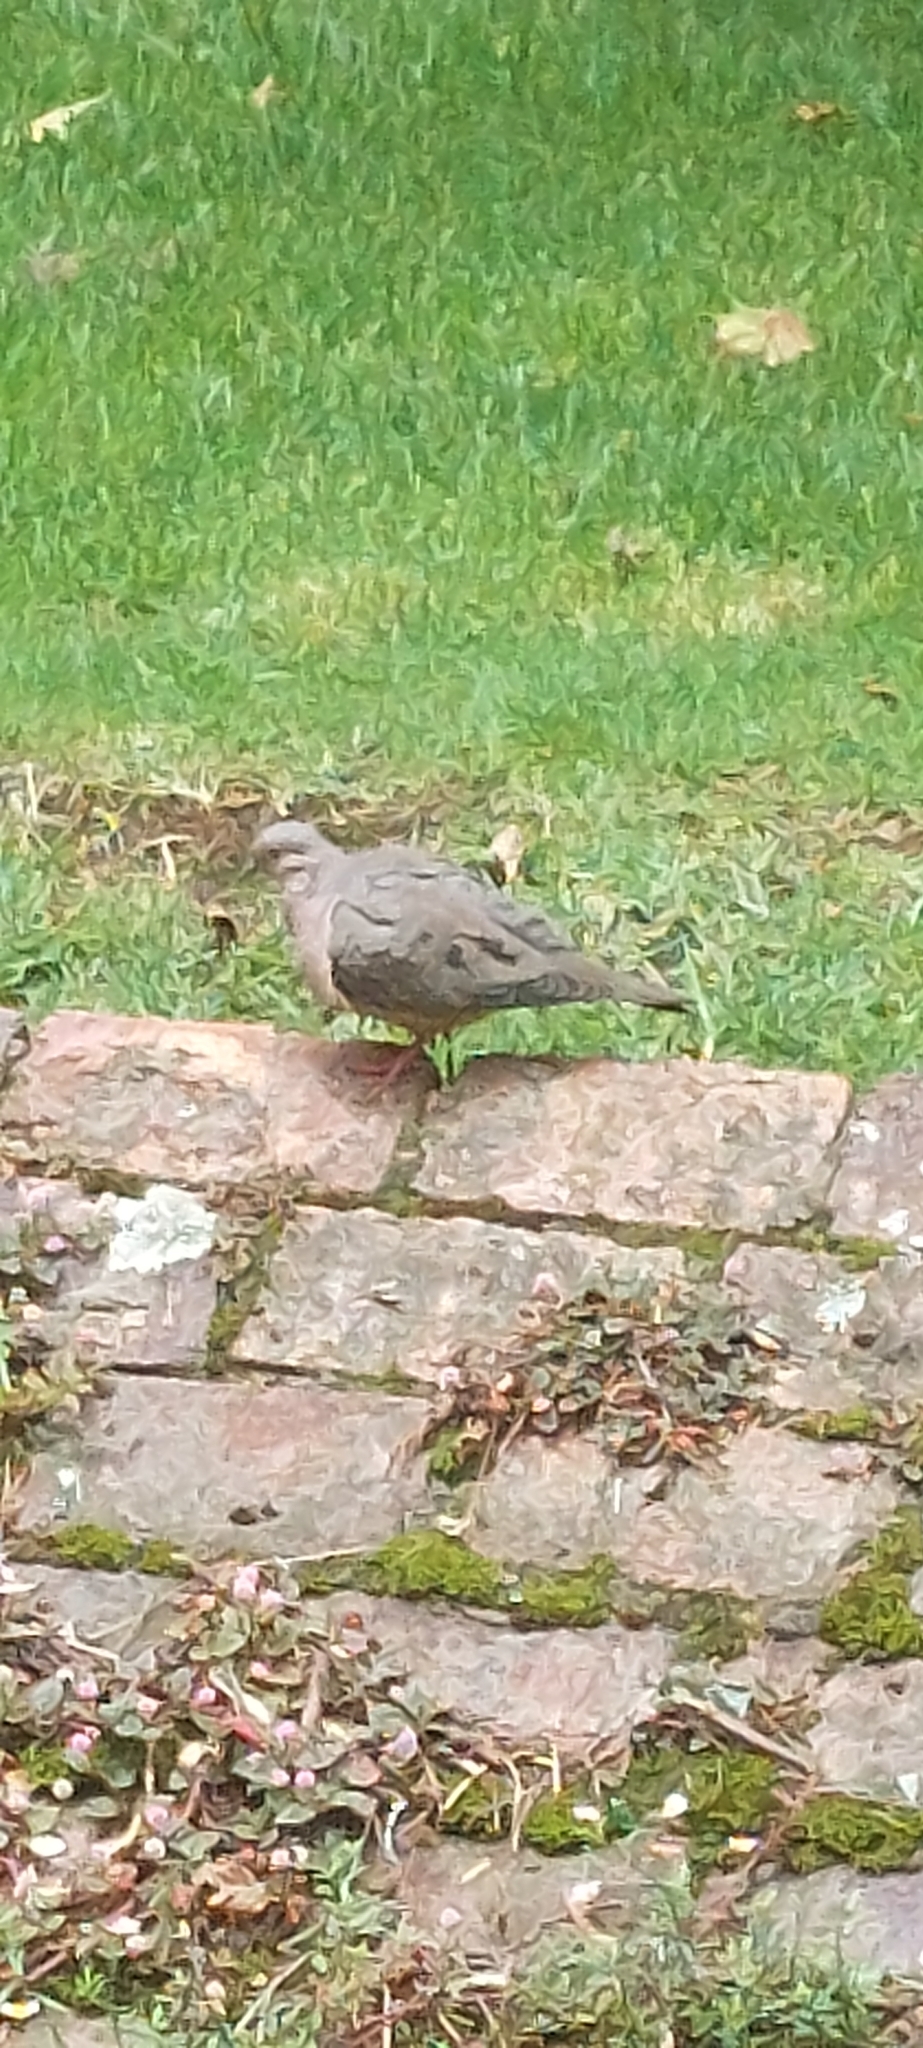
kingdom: Animalia
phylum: Chordata
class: Aves
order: Columbiformes
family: Columbidae
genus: Zenaida
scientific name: Zenaida auriculata
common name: Eared dove
